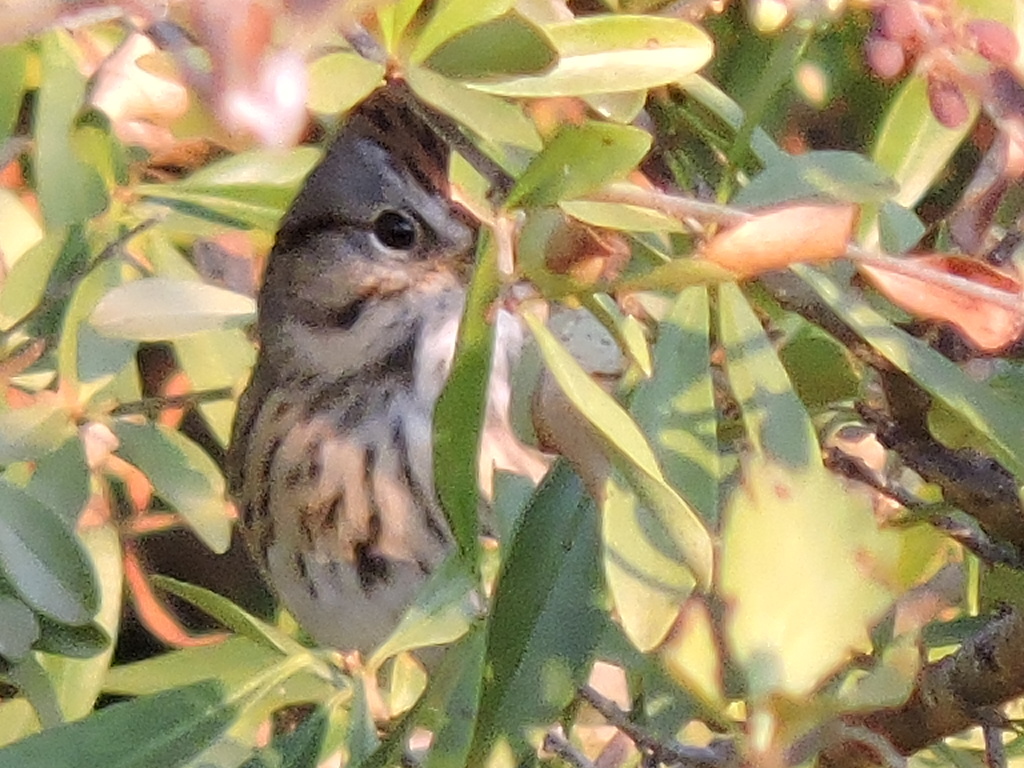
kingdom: Animalia
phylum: Chordata
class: Aves
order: Passeriformes
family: Passerellidae
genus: Melospiza
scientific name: Melospiza lincolnii
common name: Lincoln's sparrow
